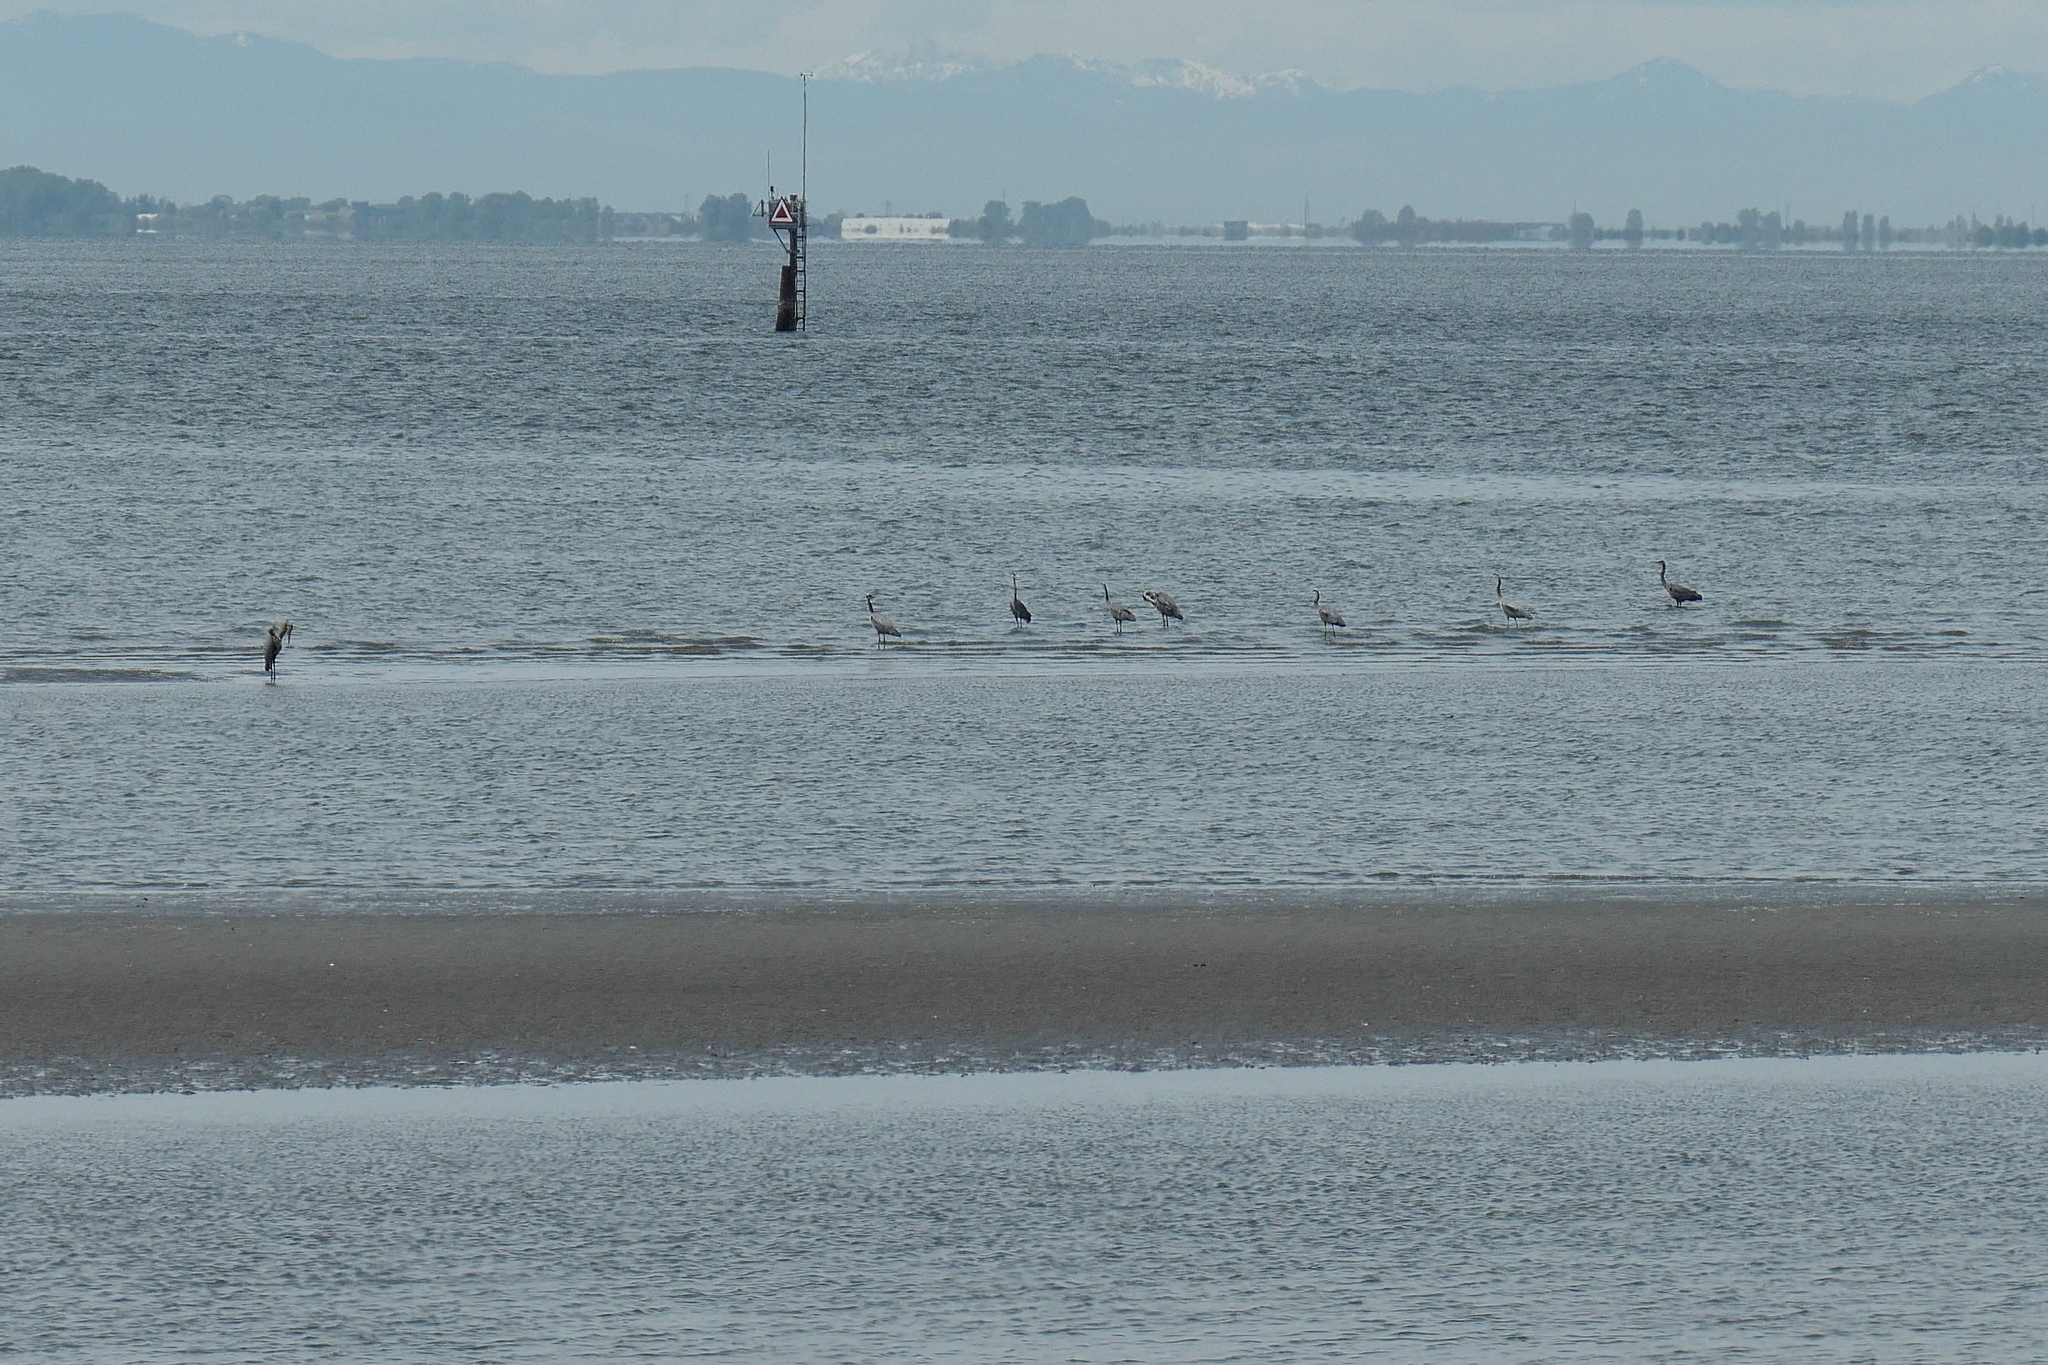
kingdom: Animalia
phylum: Chordata
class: Aves
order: Pelecaniformes
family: Ardeidae
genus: Ardea
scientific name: Ardea herodias
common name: Great blue heron
